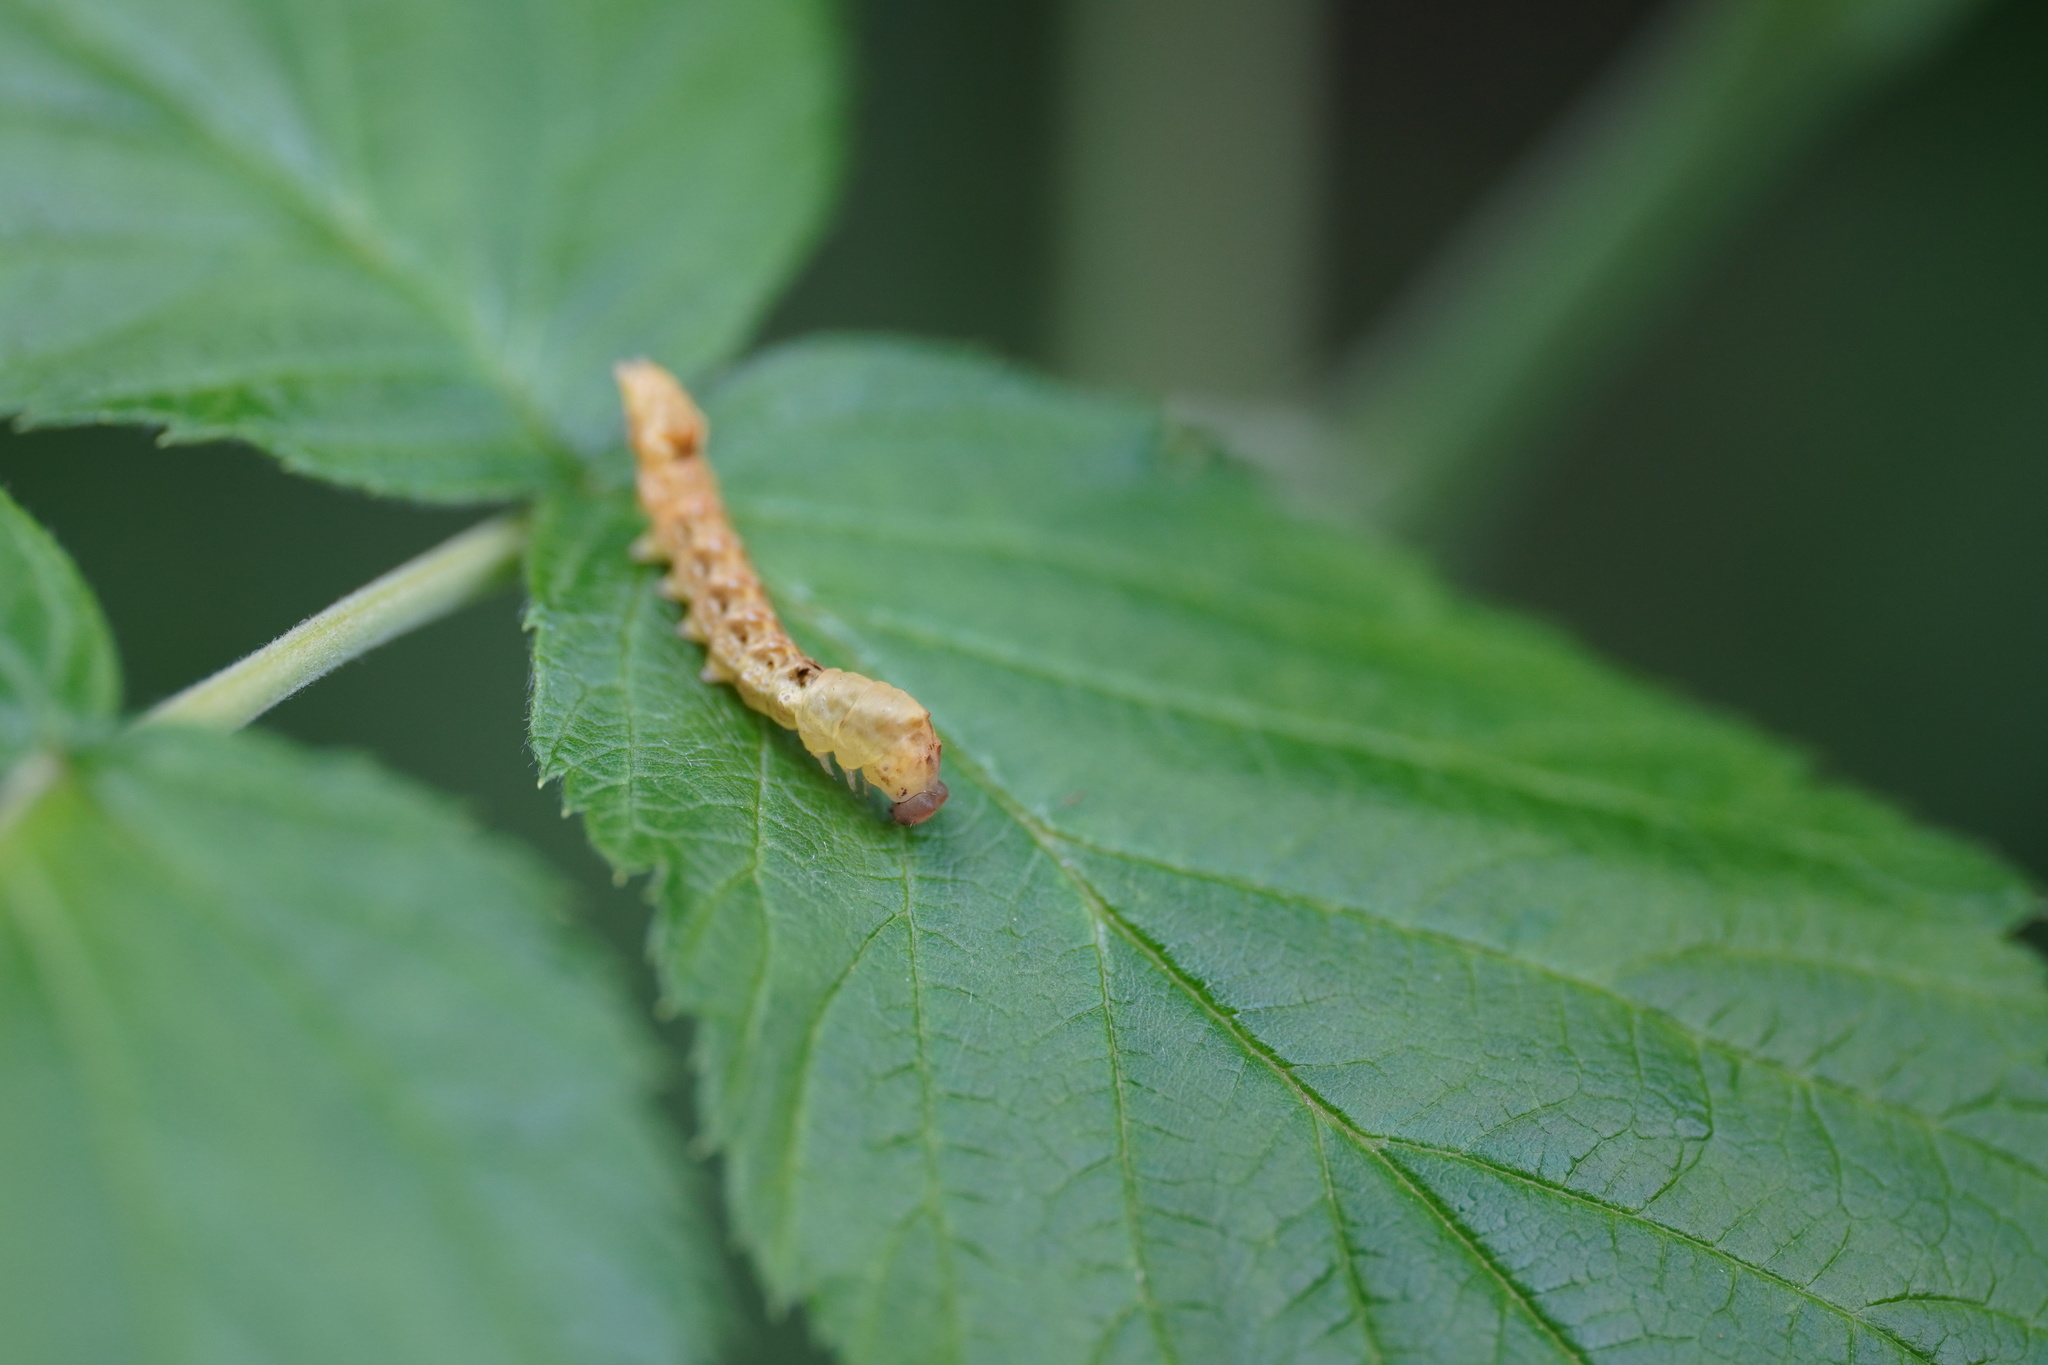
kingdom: Animalia
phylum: Arthropoda
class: Insecta
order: Lepidoptera
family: Drepanidae
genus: Thyatira
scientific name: Thyatira batis
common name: Peach blossom
